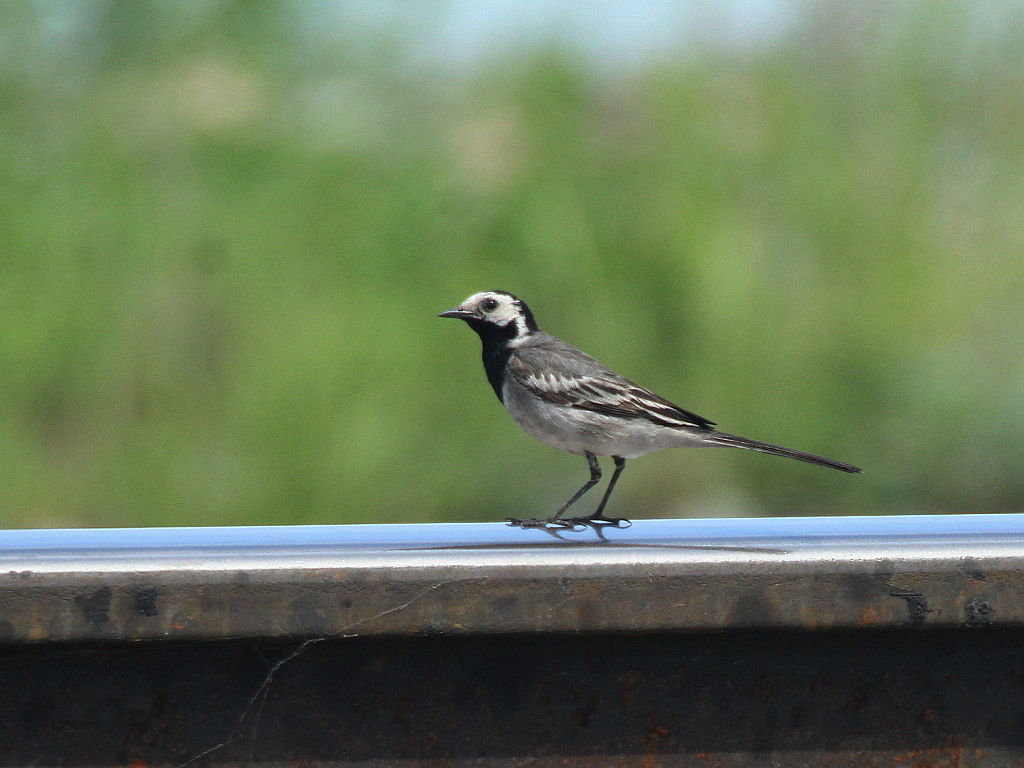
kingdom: Animalia
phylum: Chordata
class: Aves
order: Passeriformes
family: Motacillidae
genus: Motacilla
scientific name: Motacilla alba
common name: White wagtail
